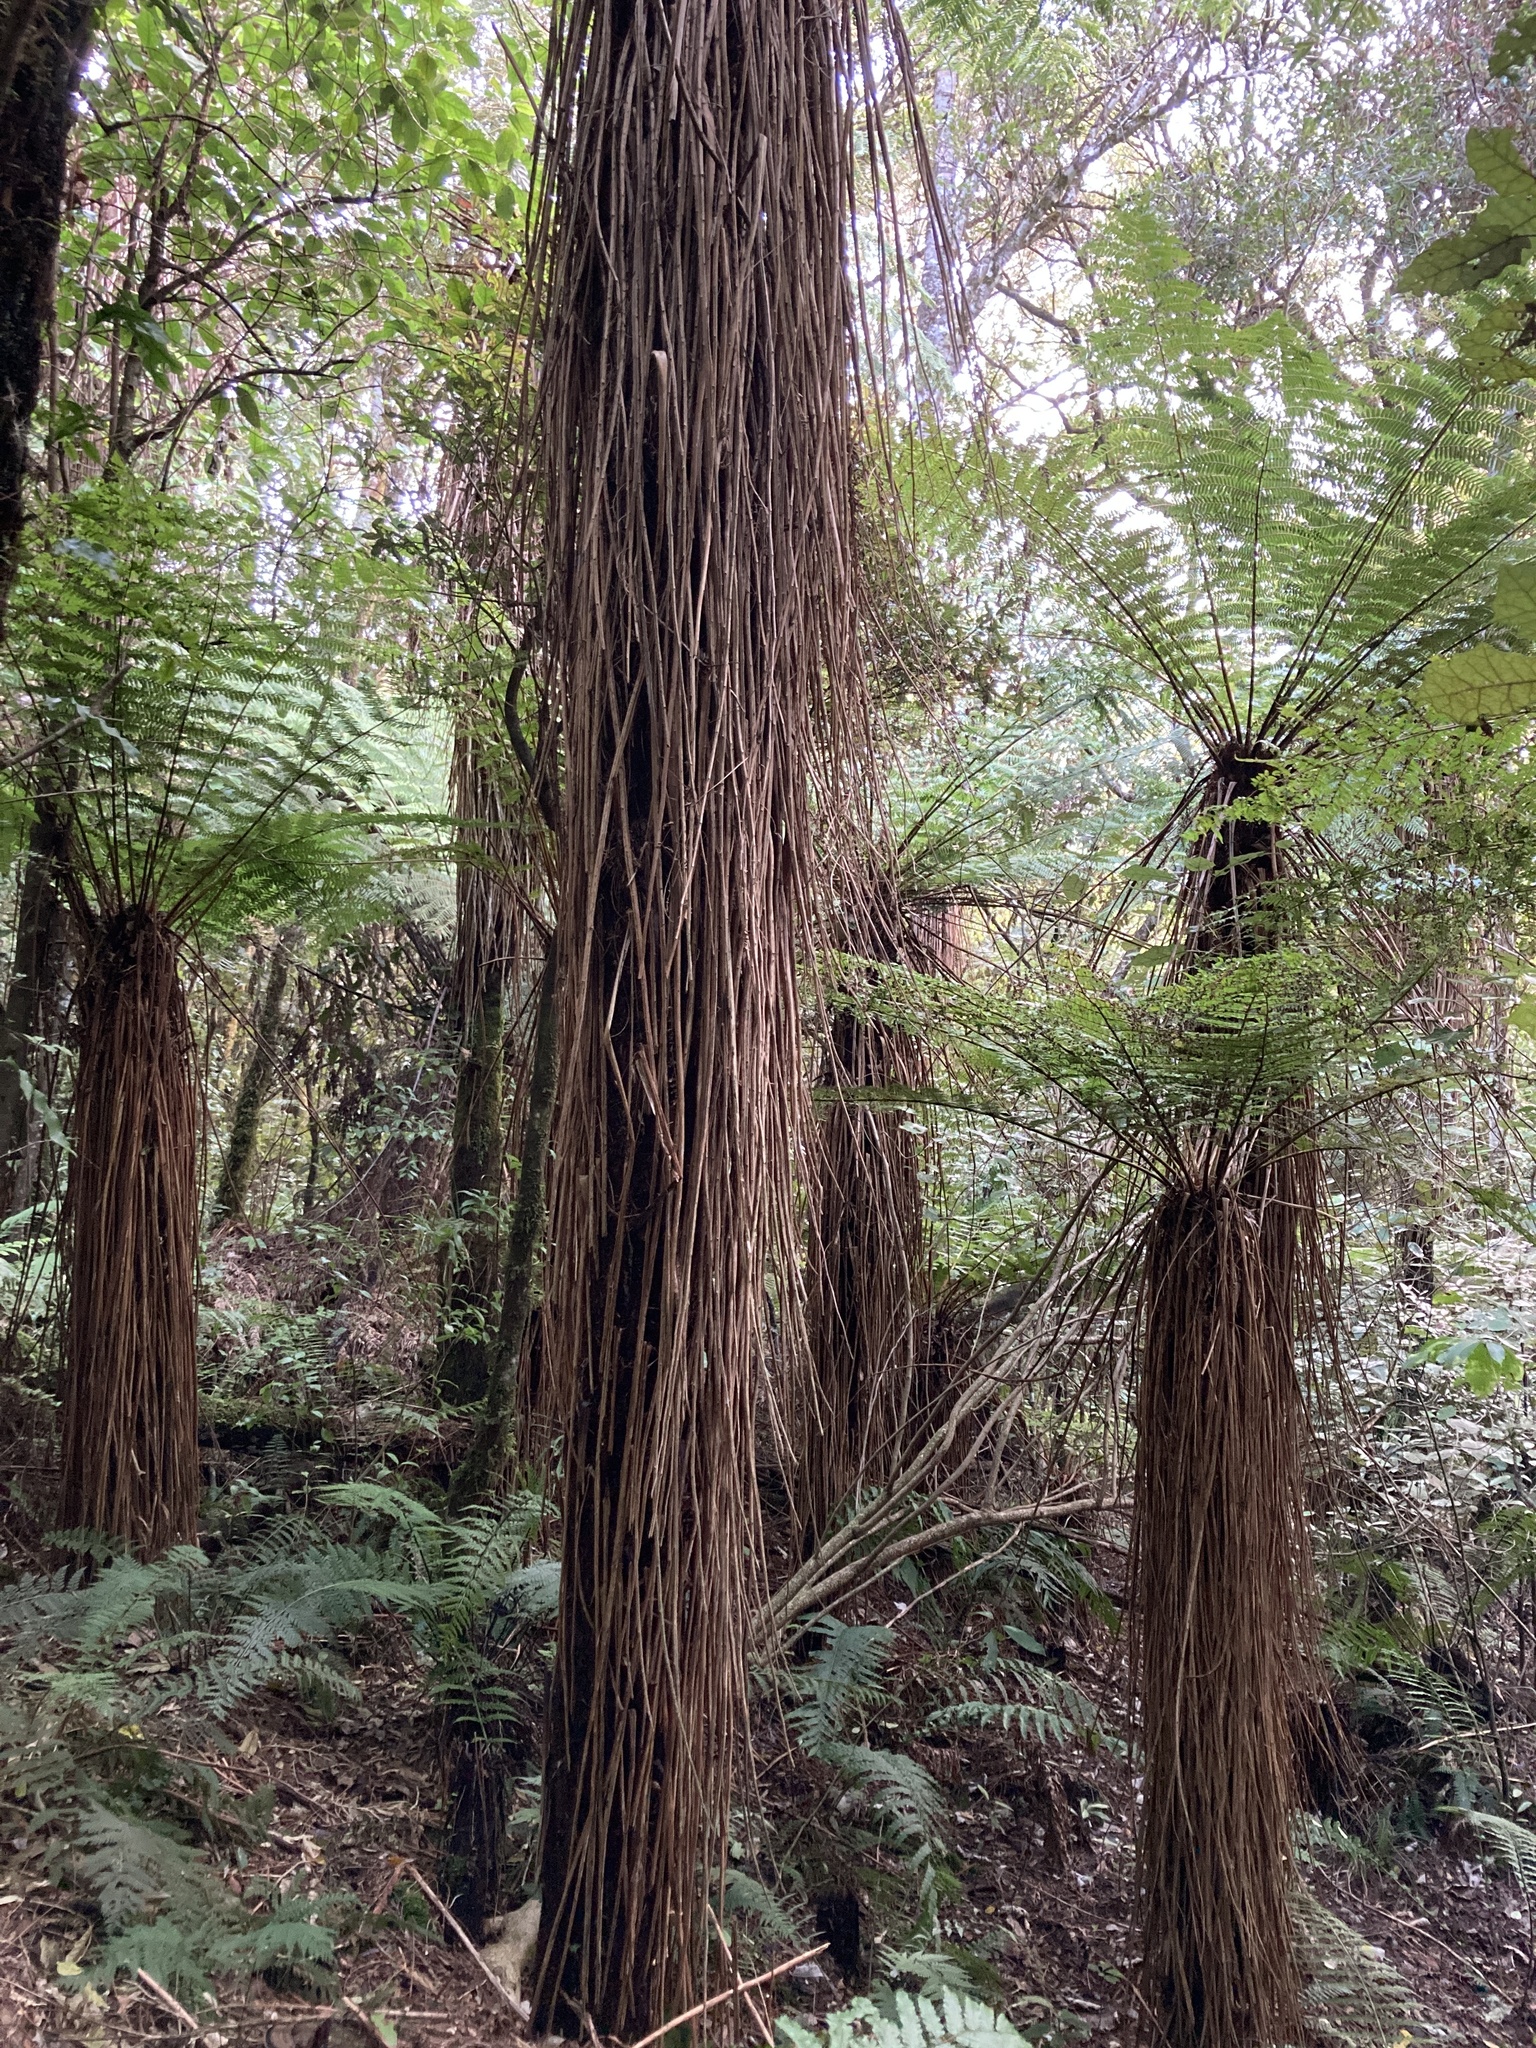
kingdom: Plantae
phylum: Tracheophyta
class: Polypodiopsida
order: Cyatheales
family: Cyatheaceae
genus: Alsophila
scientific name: Alsophila smithii
